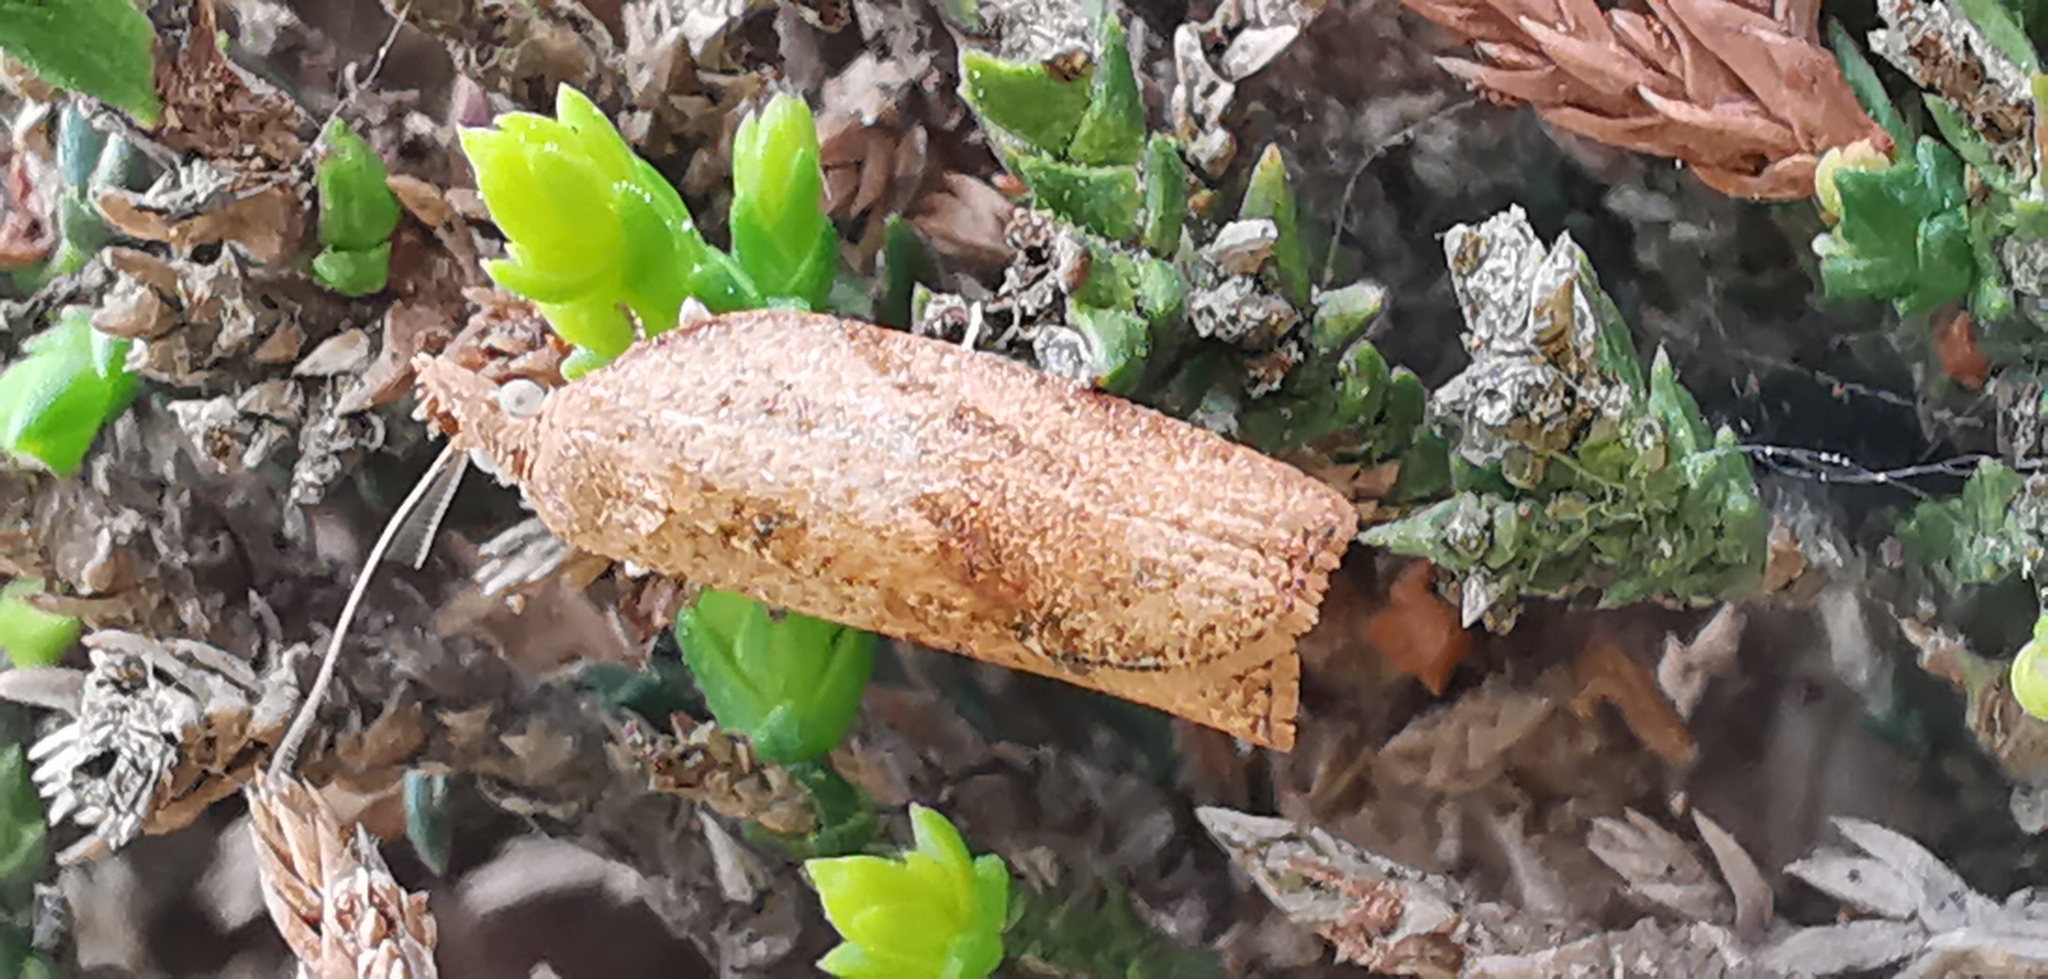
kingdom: Animalia
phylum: Arthropoda
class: Insecta
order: Lepidoptera
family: Tortricidae
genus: Epiphyas
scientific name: Epiphyas postvittana
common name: Light brown apple moth
